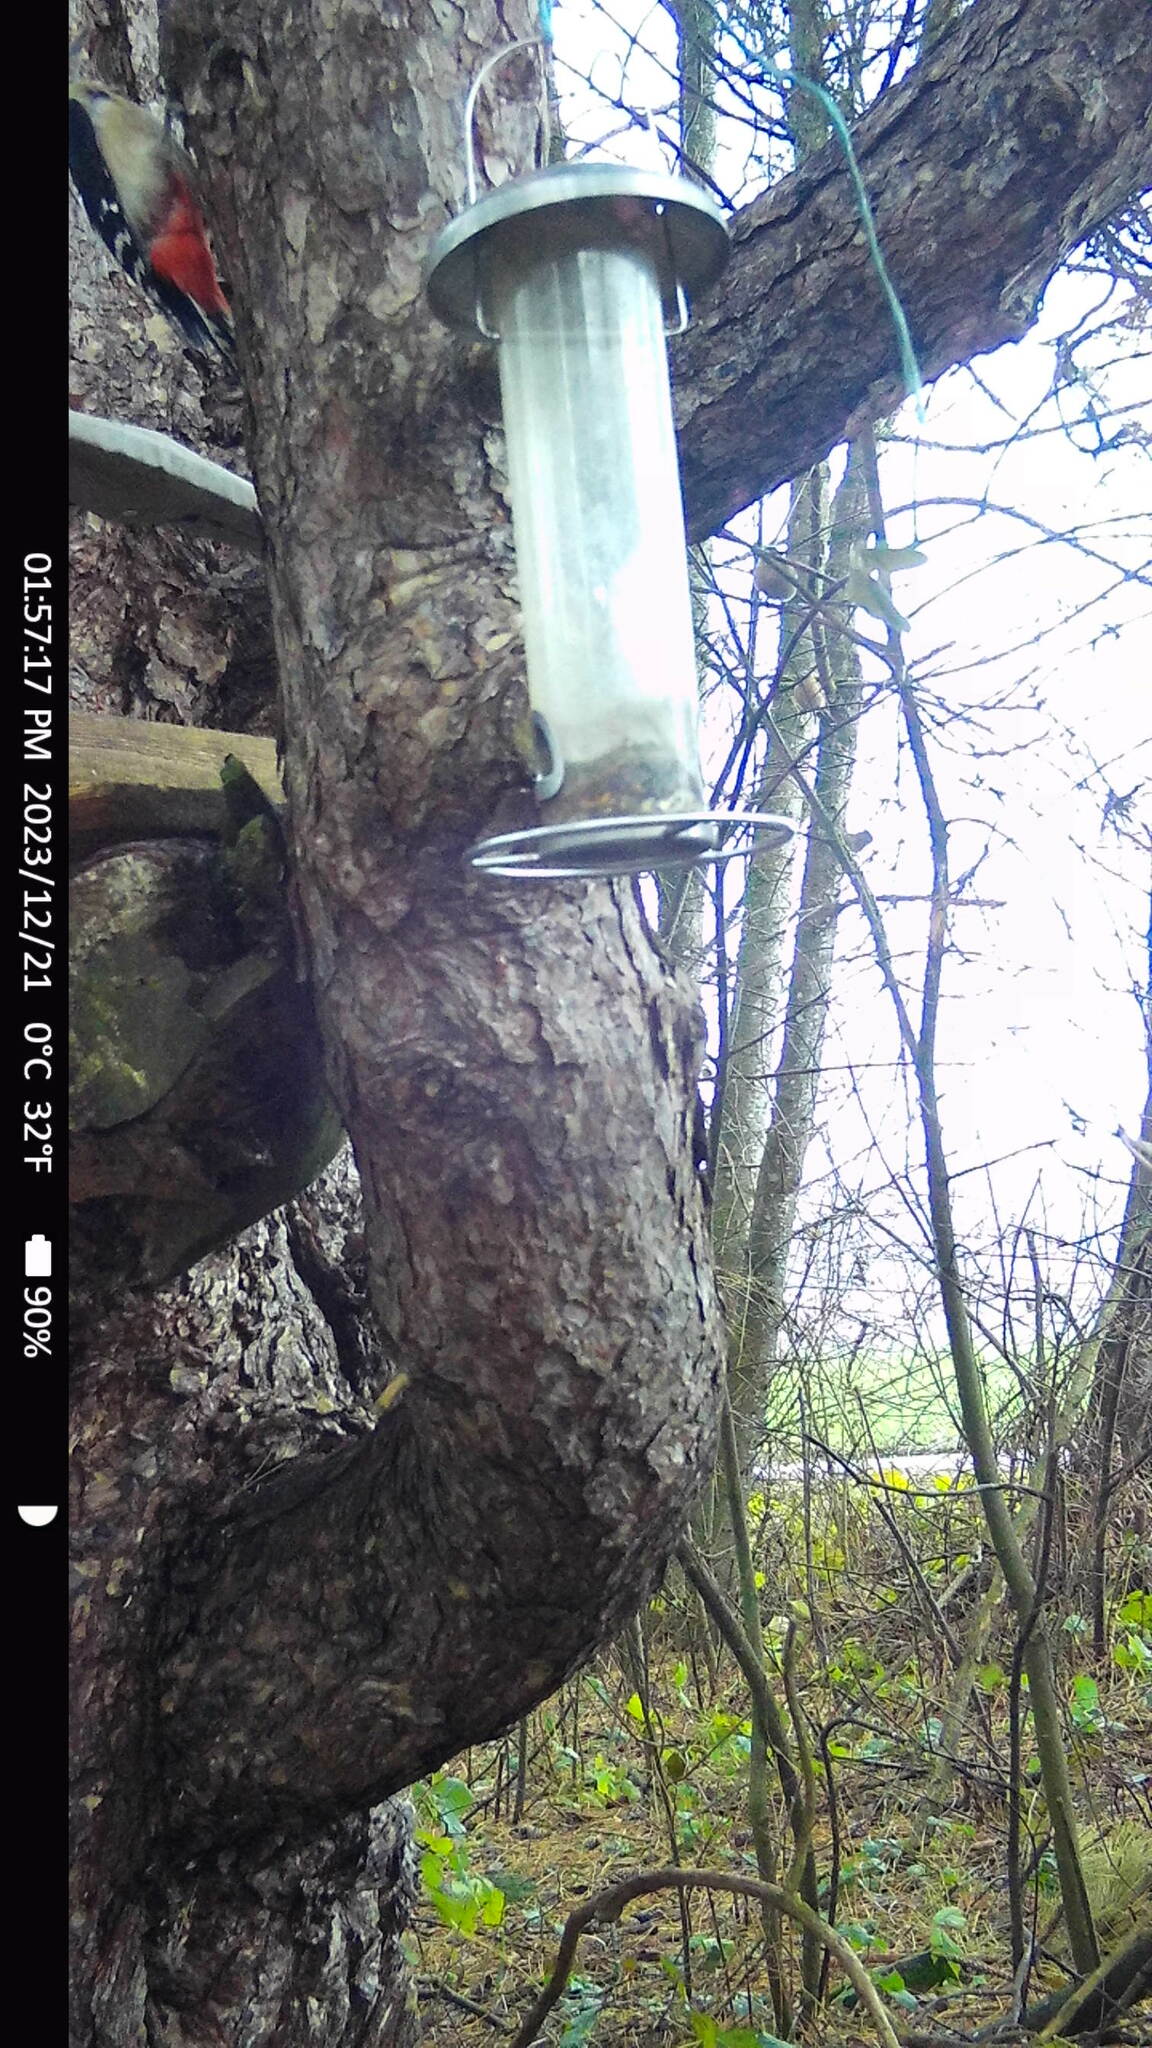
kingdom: Animalia
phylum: Chordata
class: Aves
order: Piciformes
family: Picidae
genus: Dendrocopos
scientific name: Dendrocopos major
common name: Great spotted woodpecker
